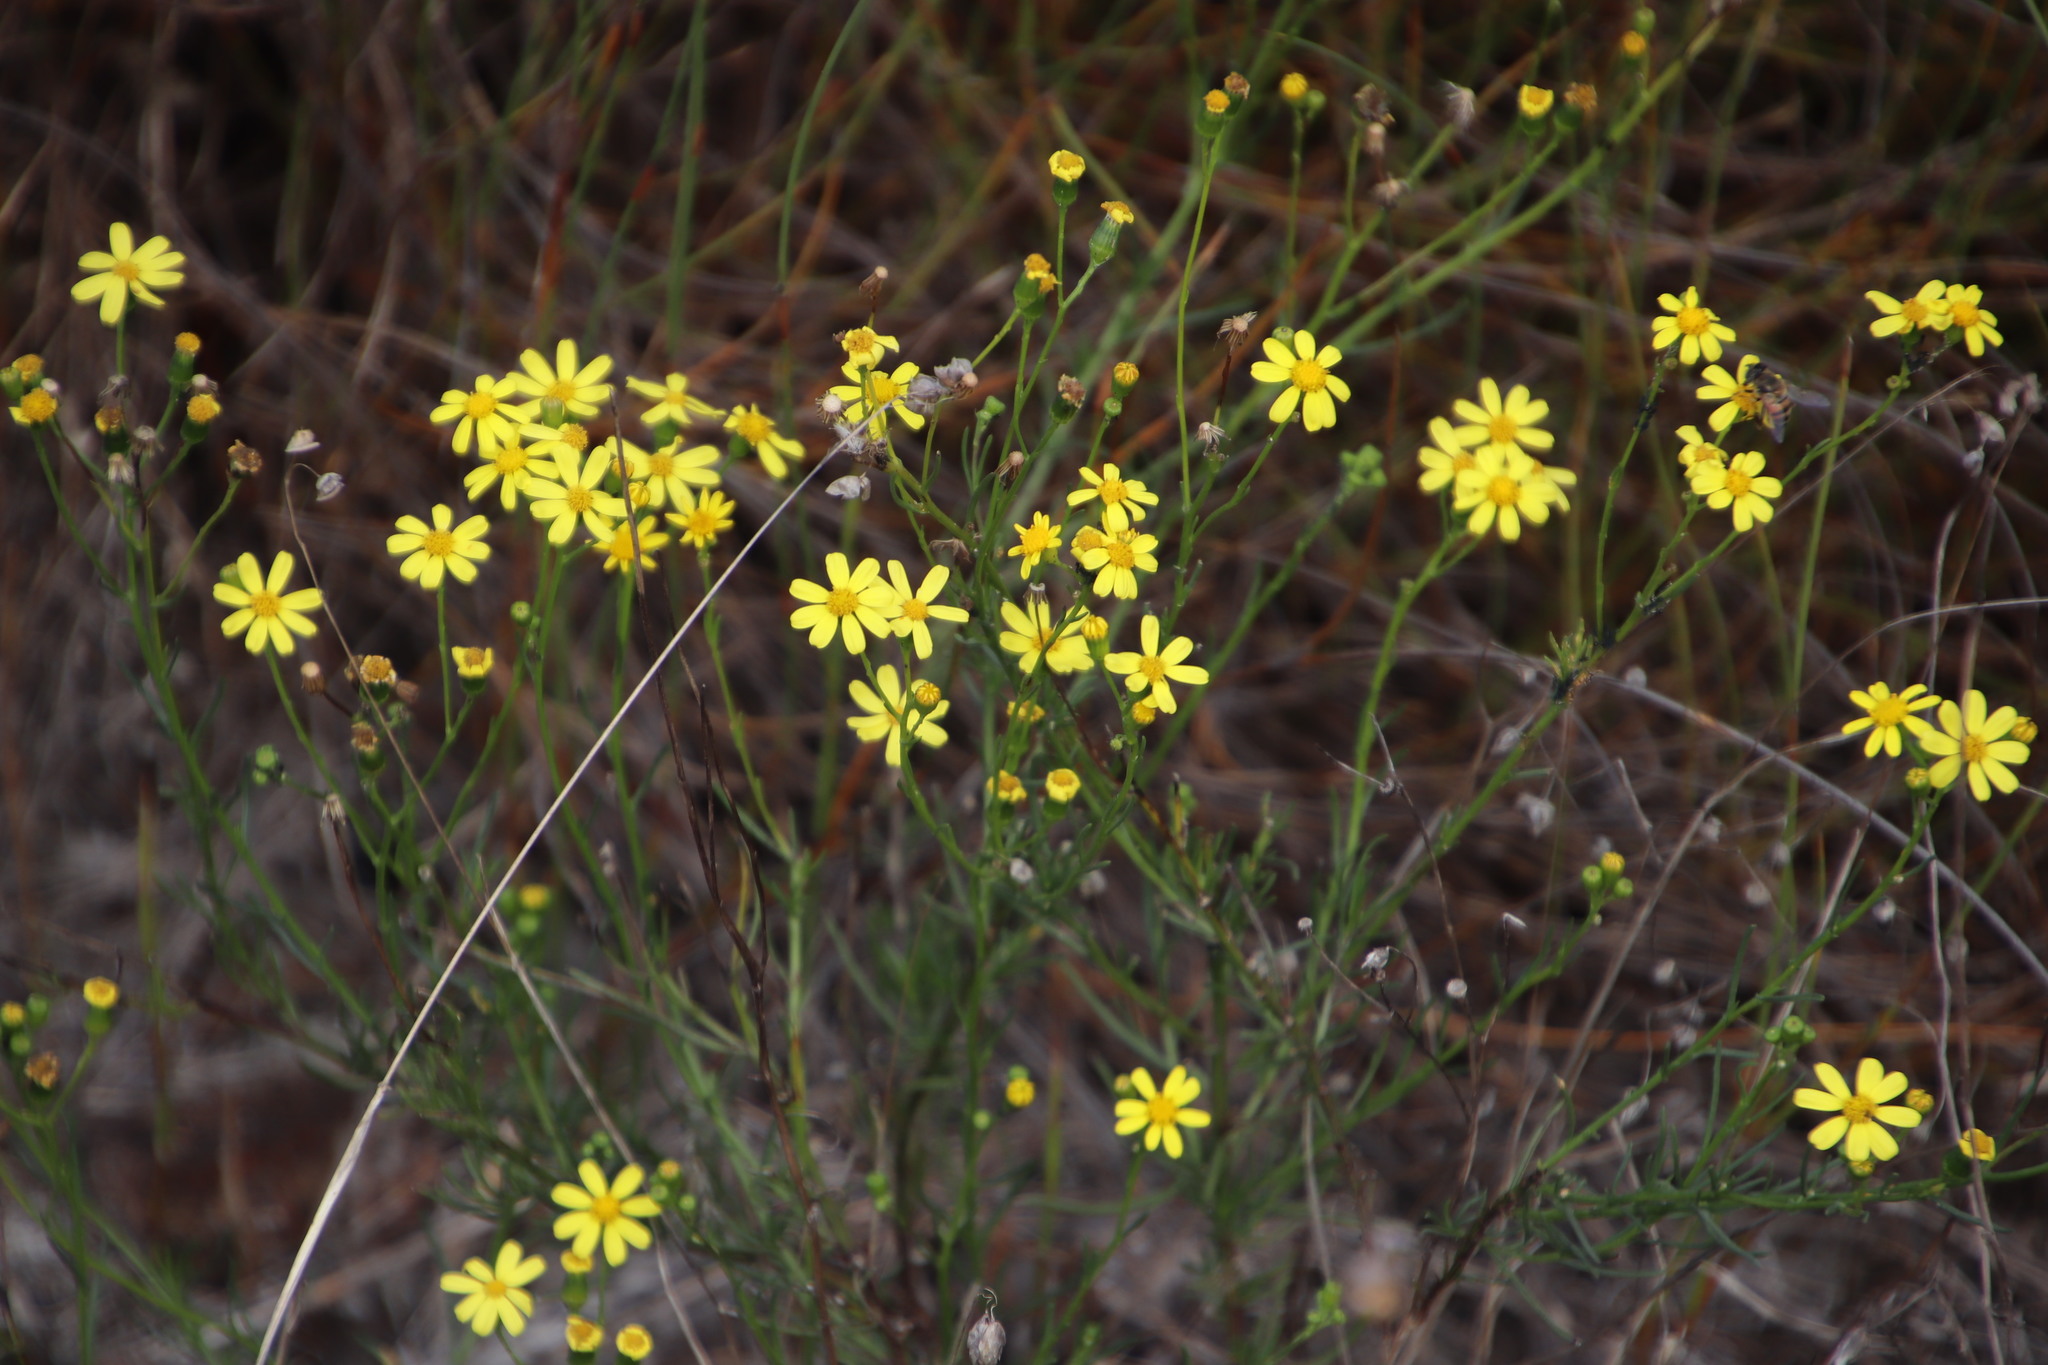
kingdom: Plantae
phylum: Tracheophyta
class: Magnoliopsida
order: Asterales
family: Asteraceae
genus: Senecio
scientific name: Senecio burchellii
